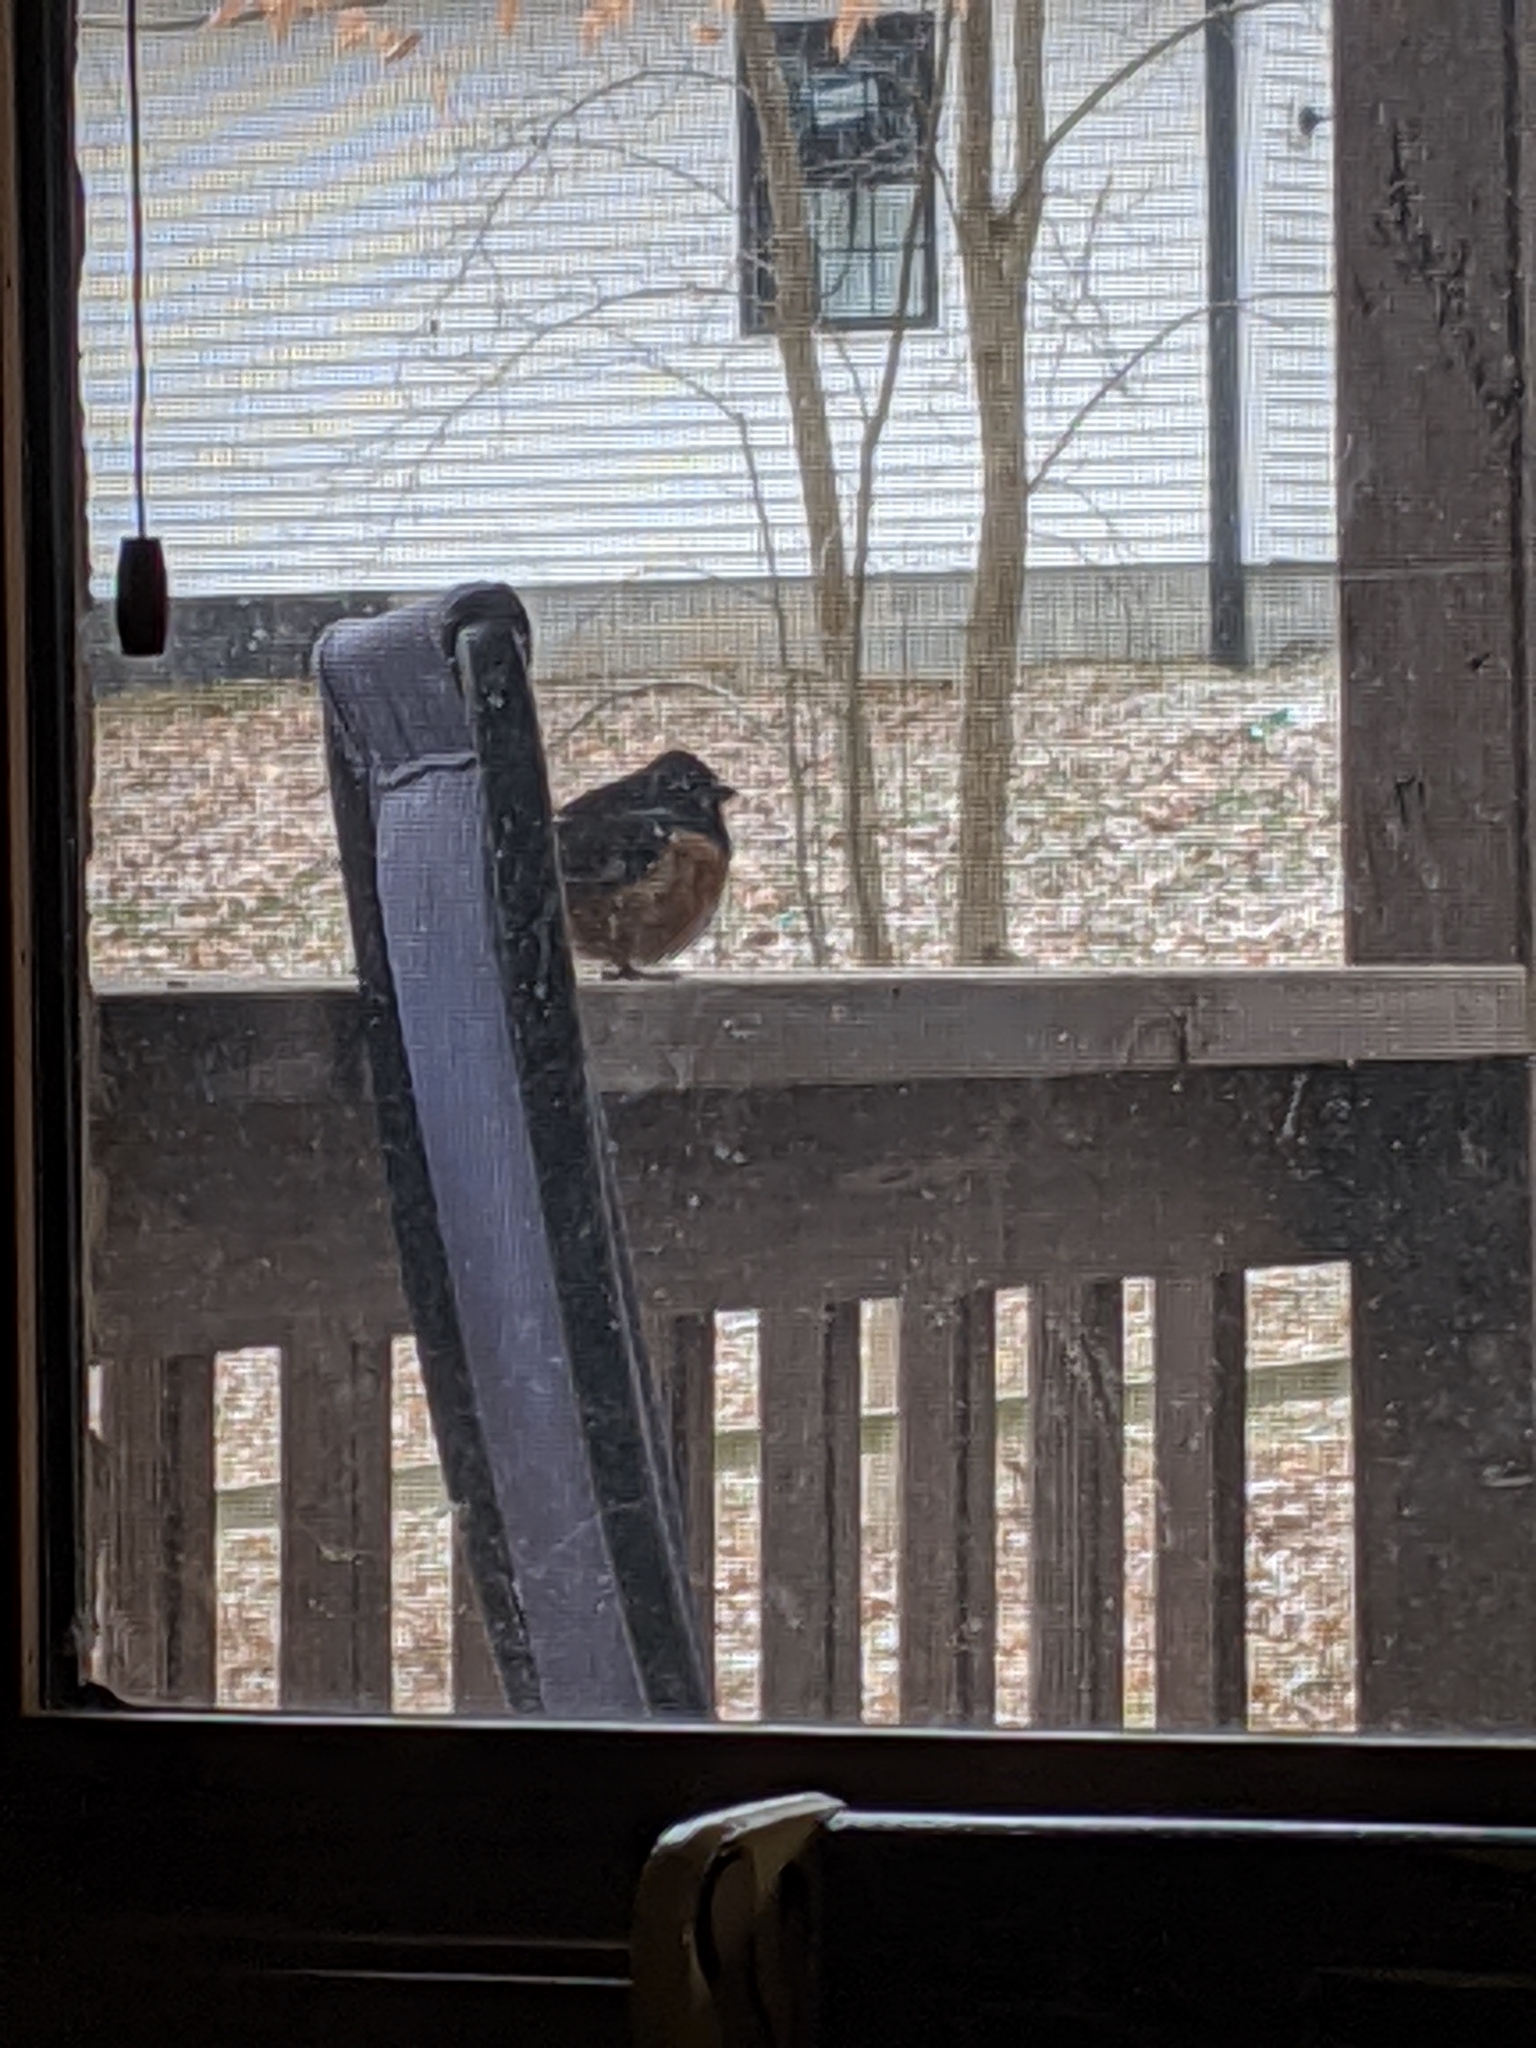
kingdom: Animalia
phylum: Chordata
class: Aves
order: Passeriformes
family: Passerellidae
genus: Pipilo
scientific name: Pipilo erythrophthalmus
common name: Eastern towhee
